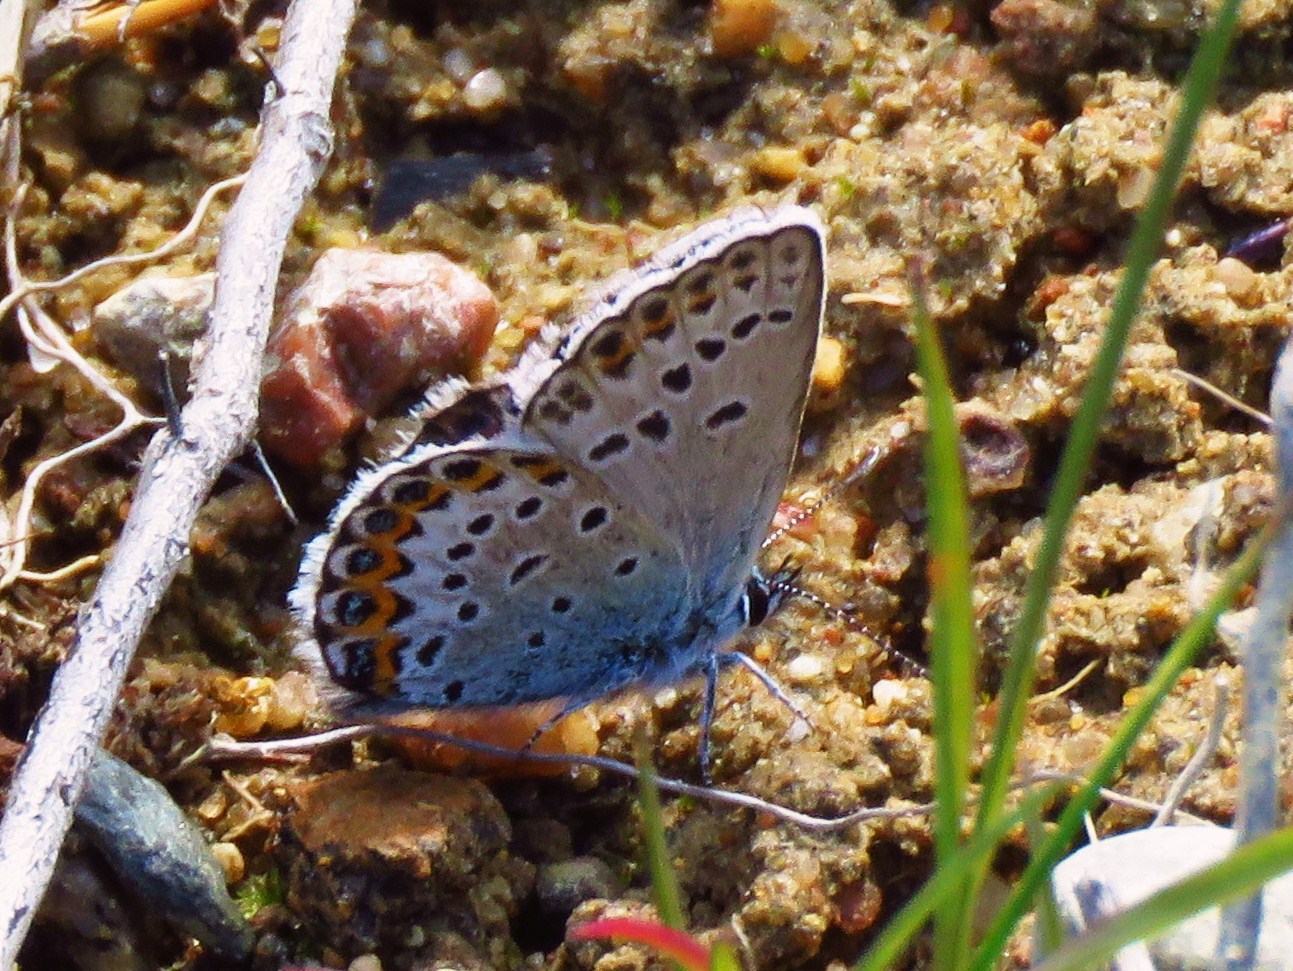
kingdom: Animalia
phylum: Arthropoda
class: Insecta
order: Lepidoptera
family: Lycaenidae
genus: Lycaeides
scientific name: Lycaeides idas
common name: Northern blue
